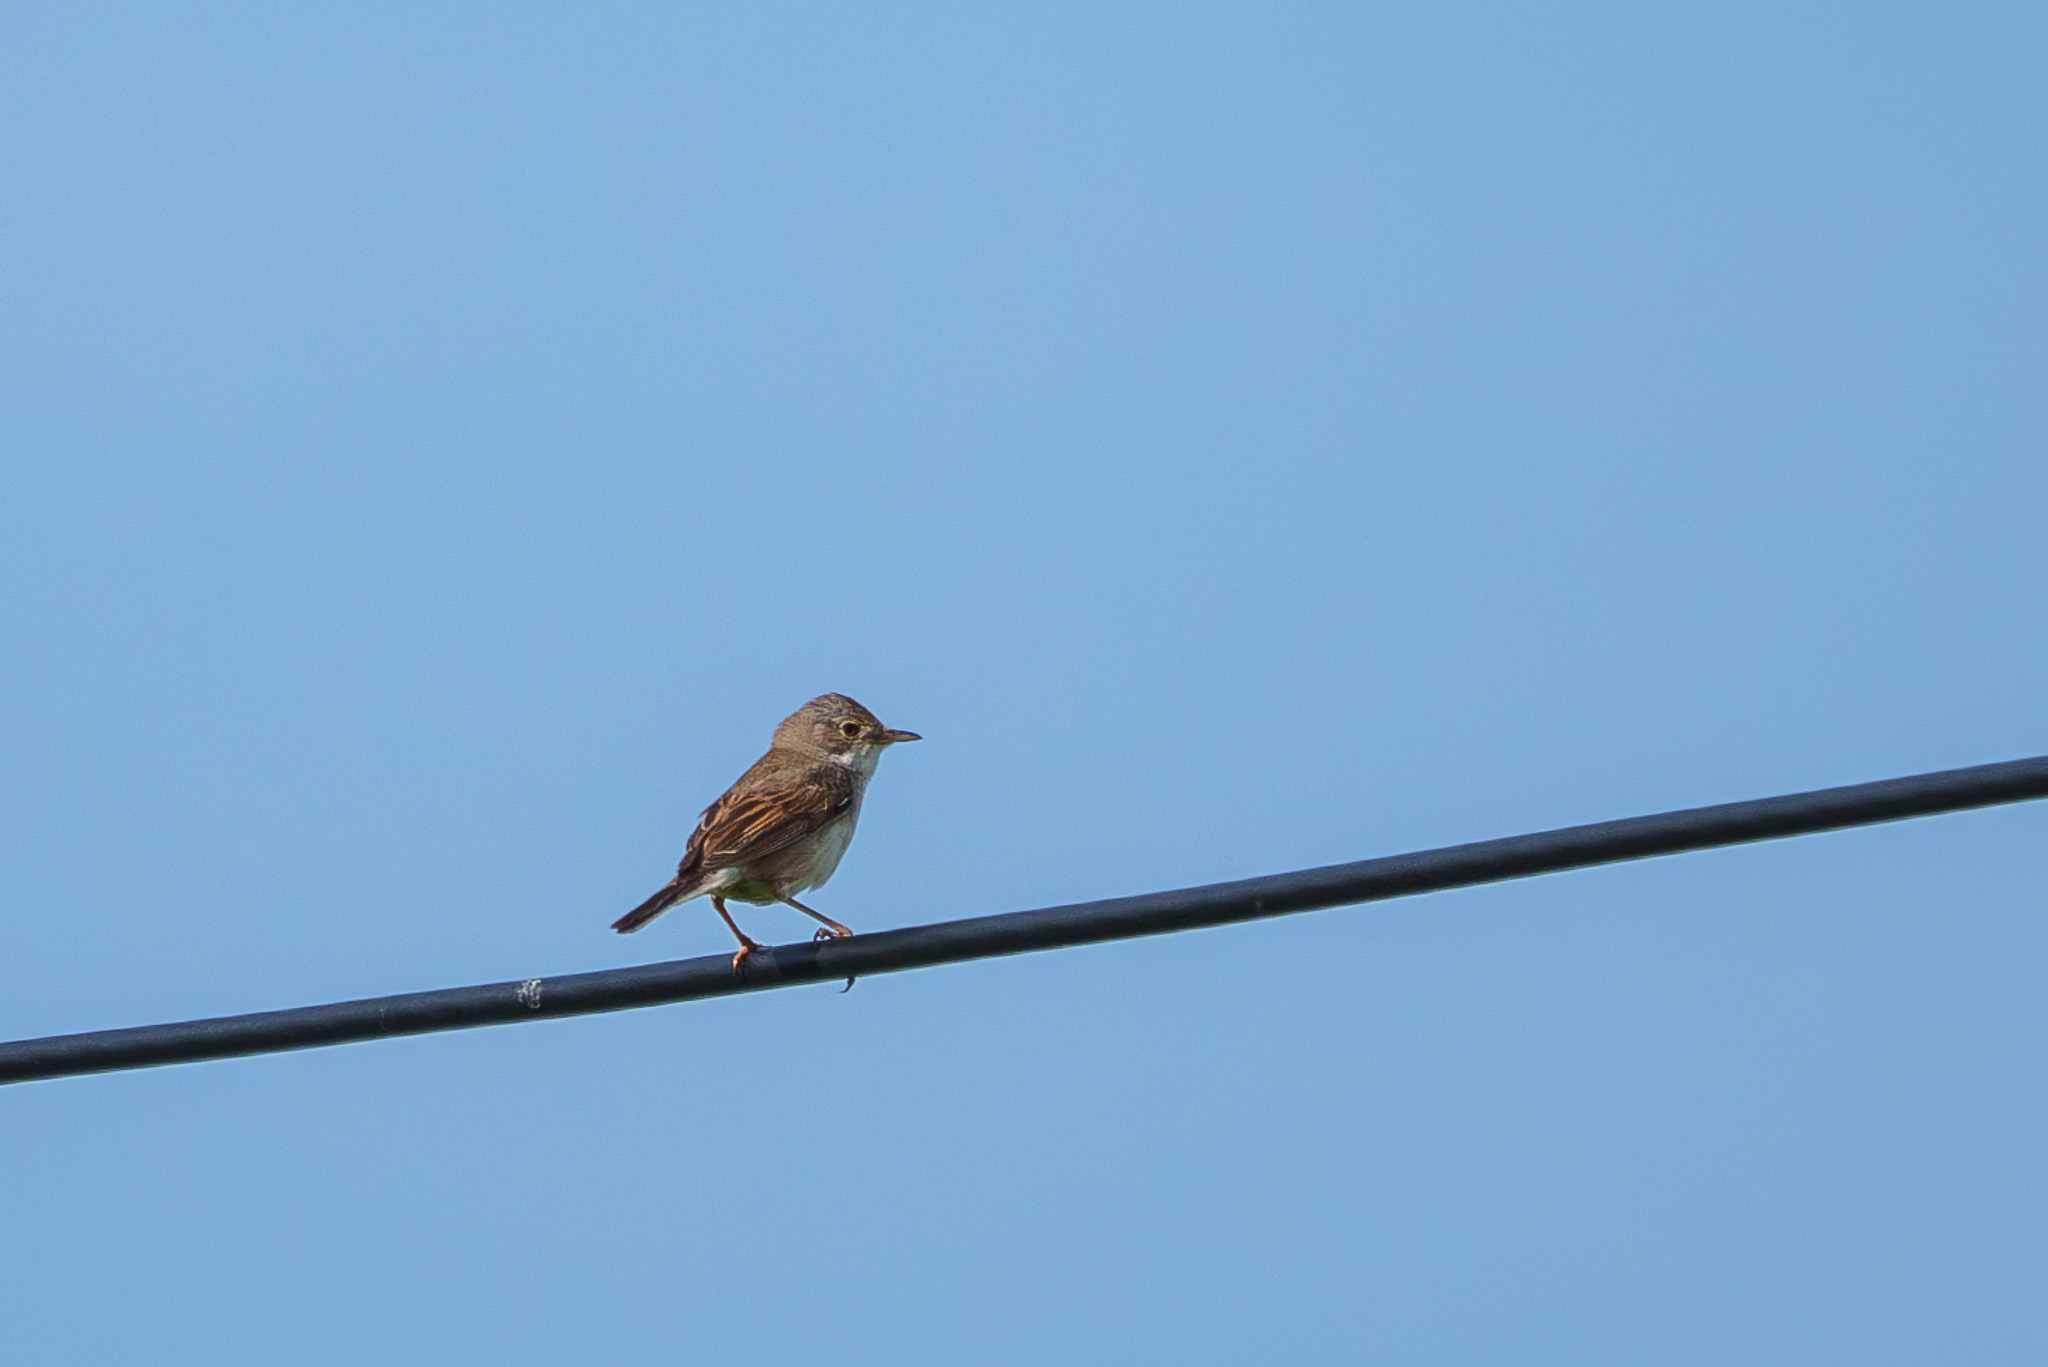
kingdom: Animalia
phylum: Chordata
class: Aves
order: Passeriformes
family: Sylviidae
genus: Sylvia
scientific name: Sylvia communis
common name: Common whitethroat
